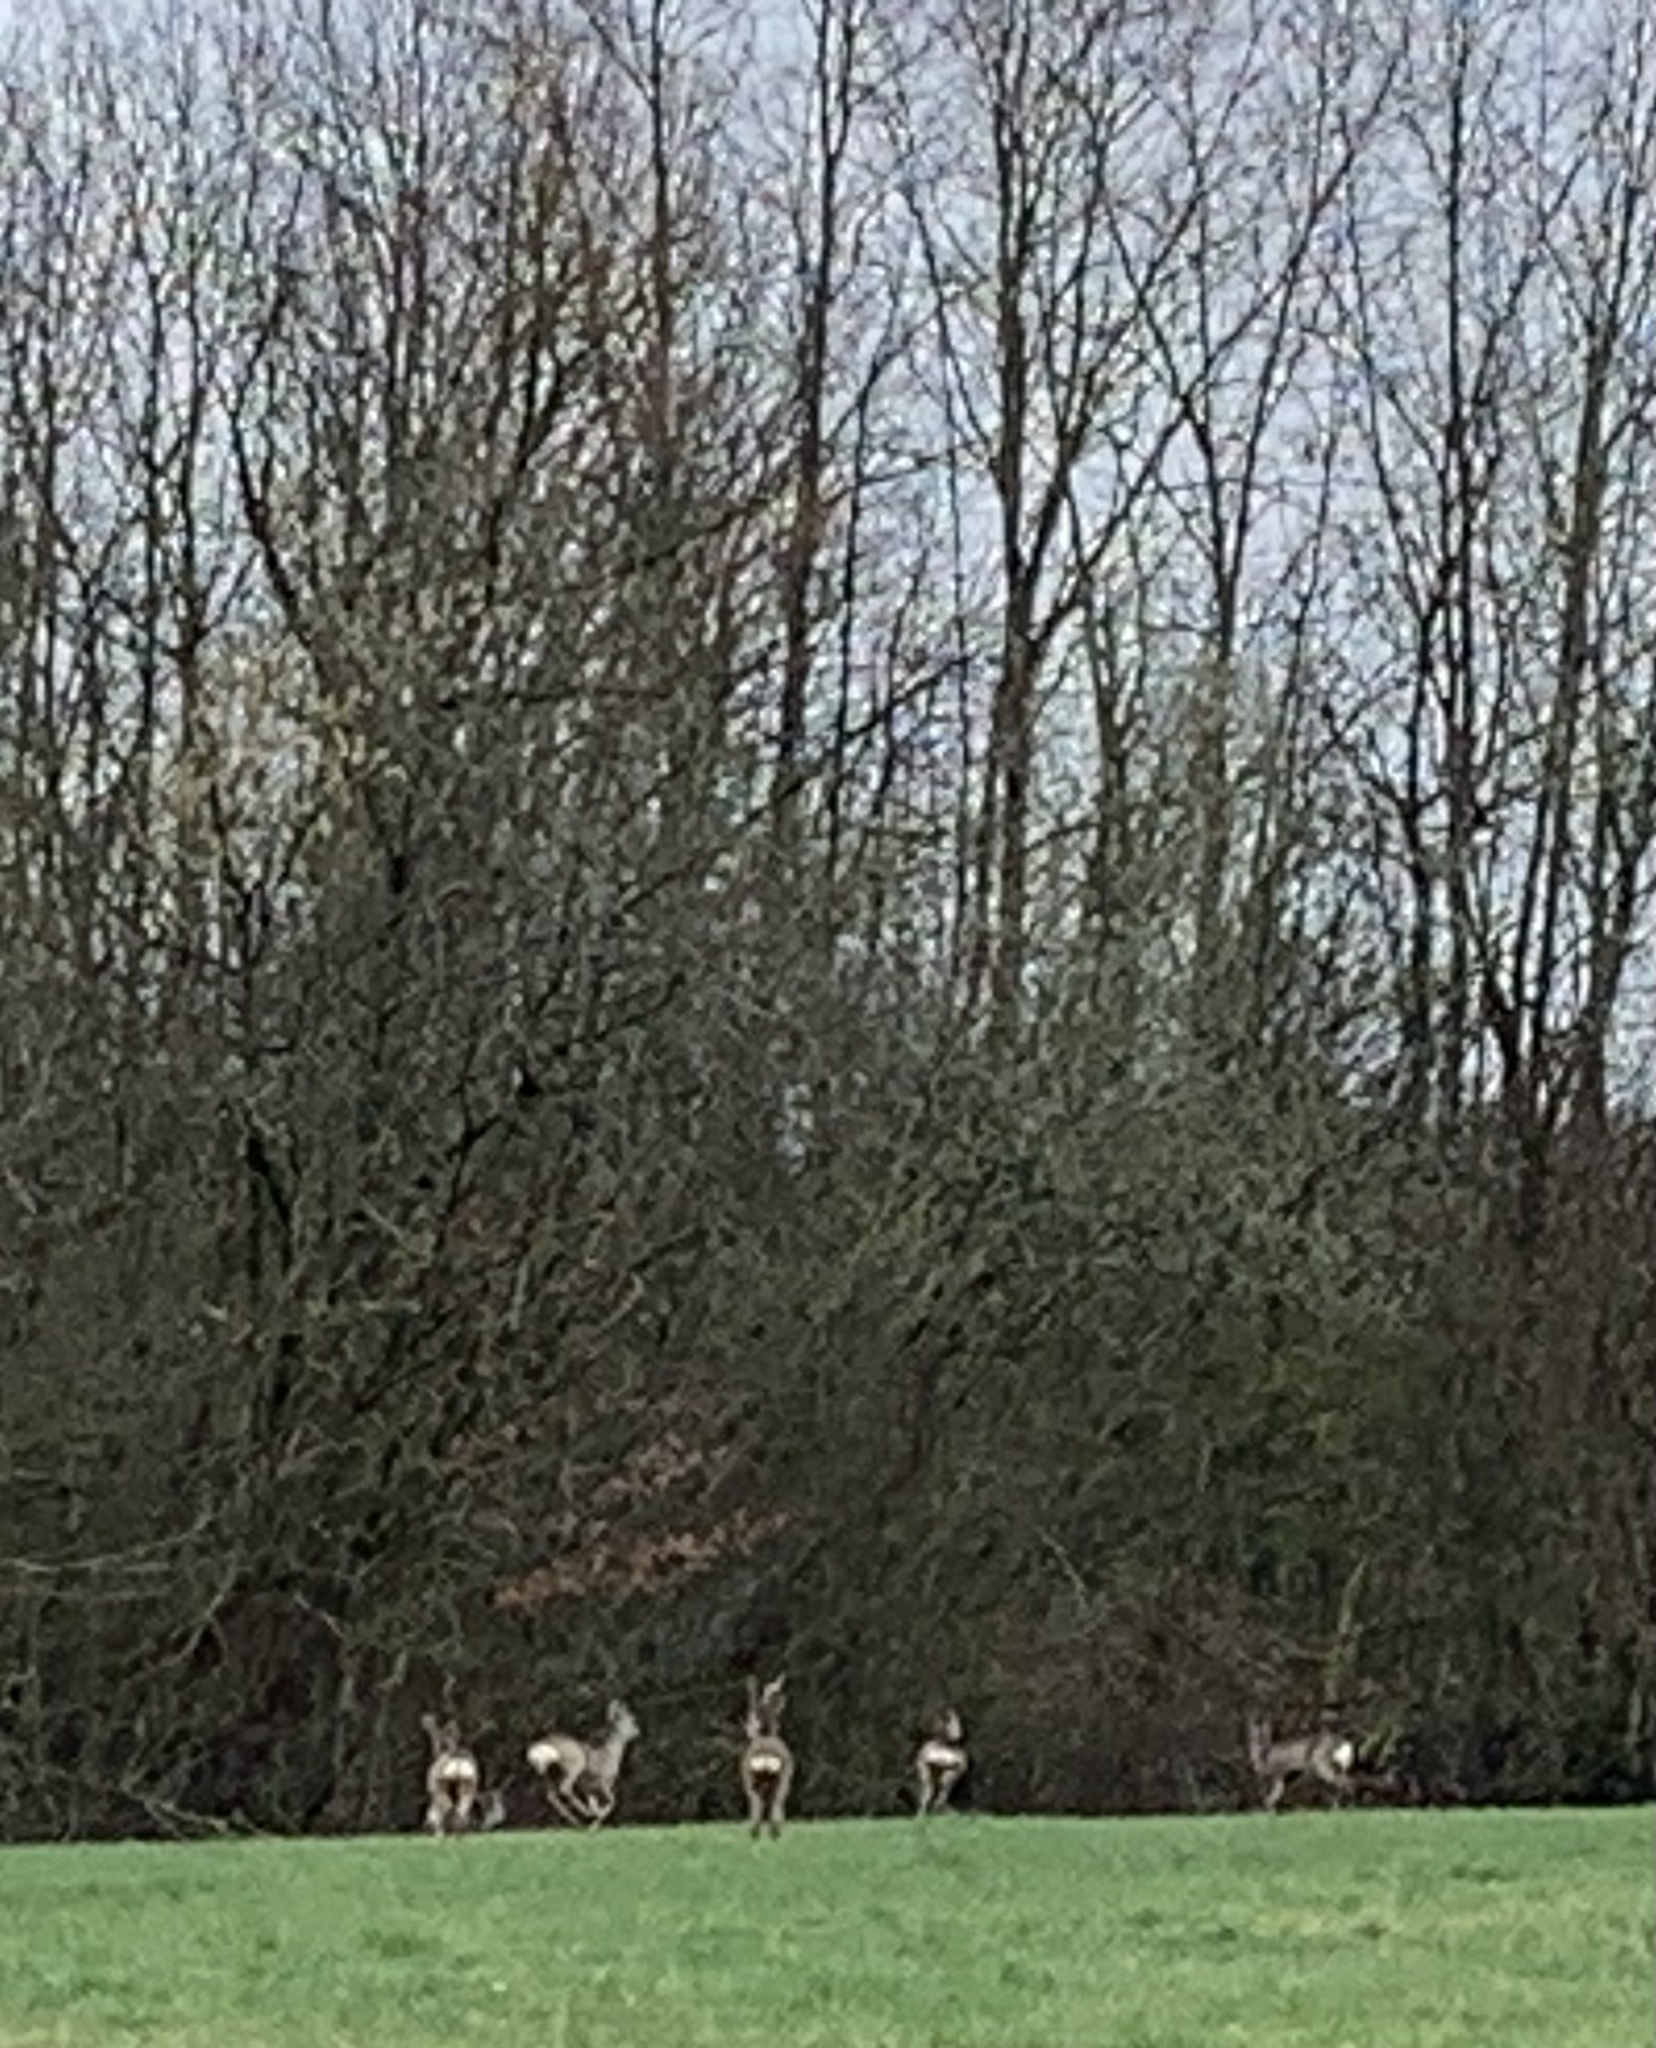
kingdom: Animalia
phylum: Chordata
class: Mammalia
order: Artiodactyla
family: Cervidae
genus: Capreolus
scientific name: Capreolus capreolus
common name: Western roe deer
